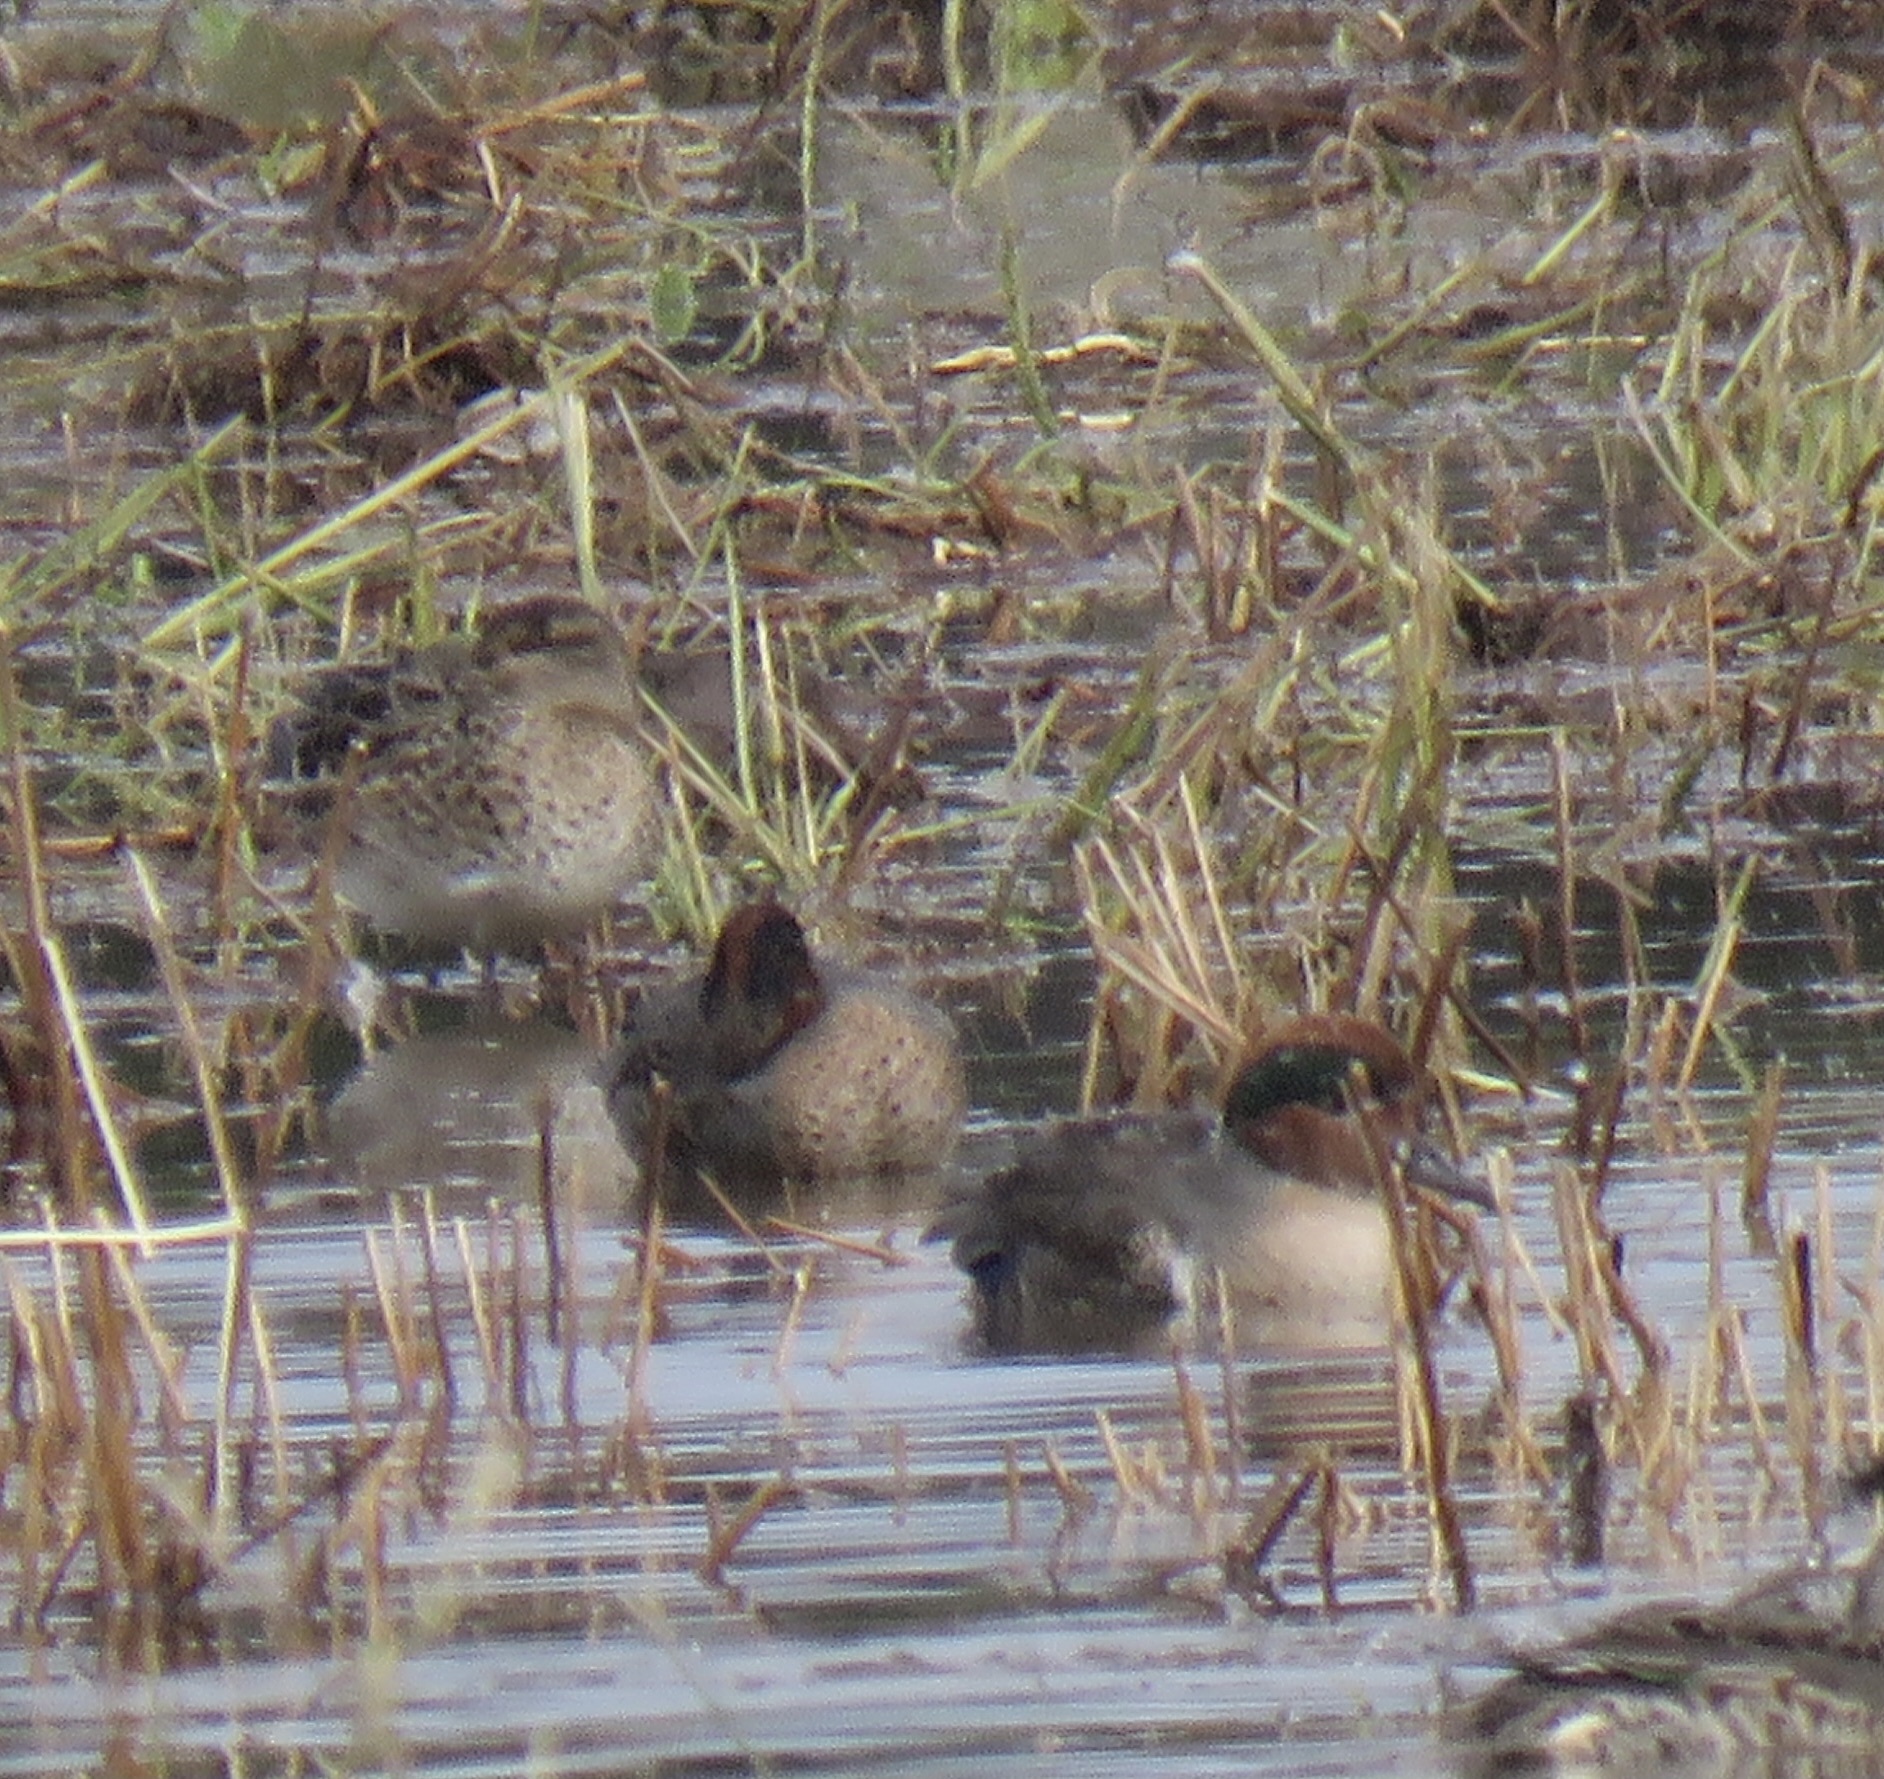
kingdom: Animalia
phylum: Chordata
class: Aves
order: Anseriformes
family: Anatidae
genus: Anas
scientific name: Anas crecca
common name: Eurasian teal
